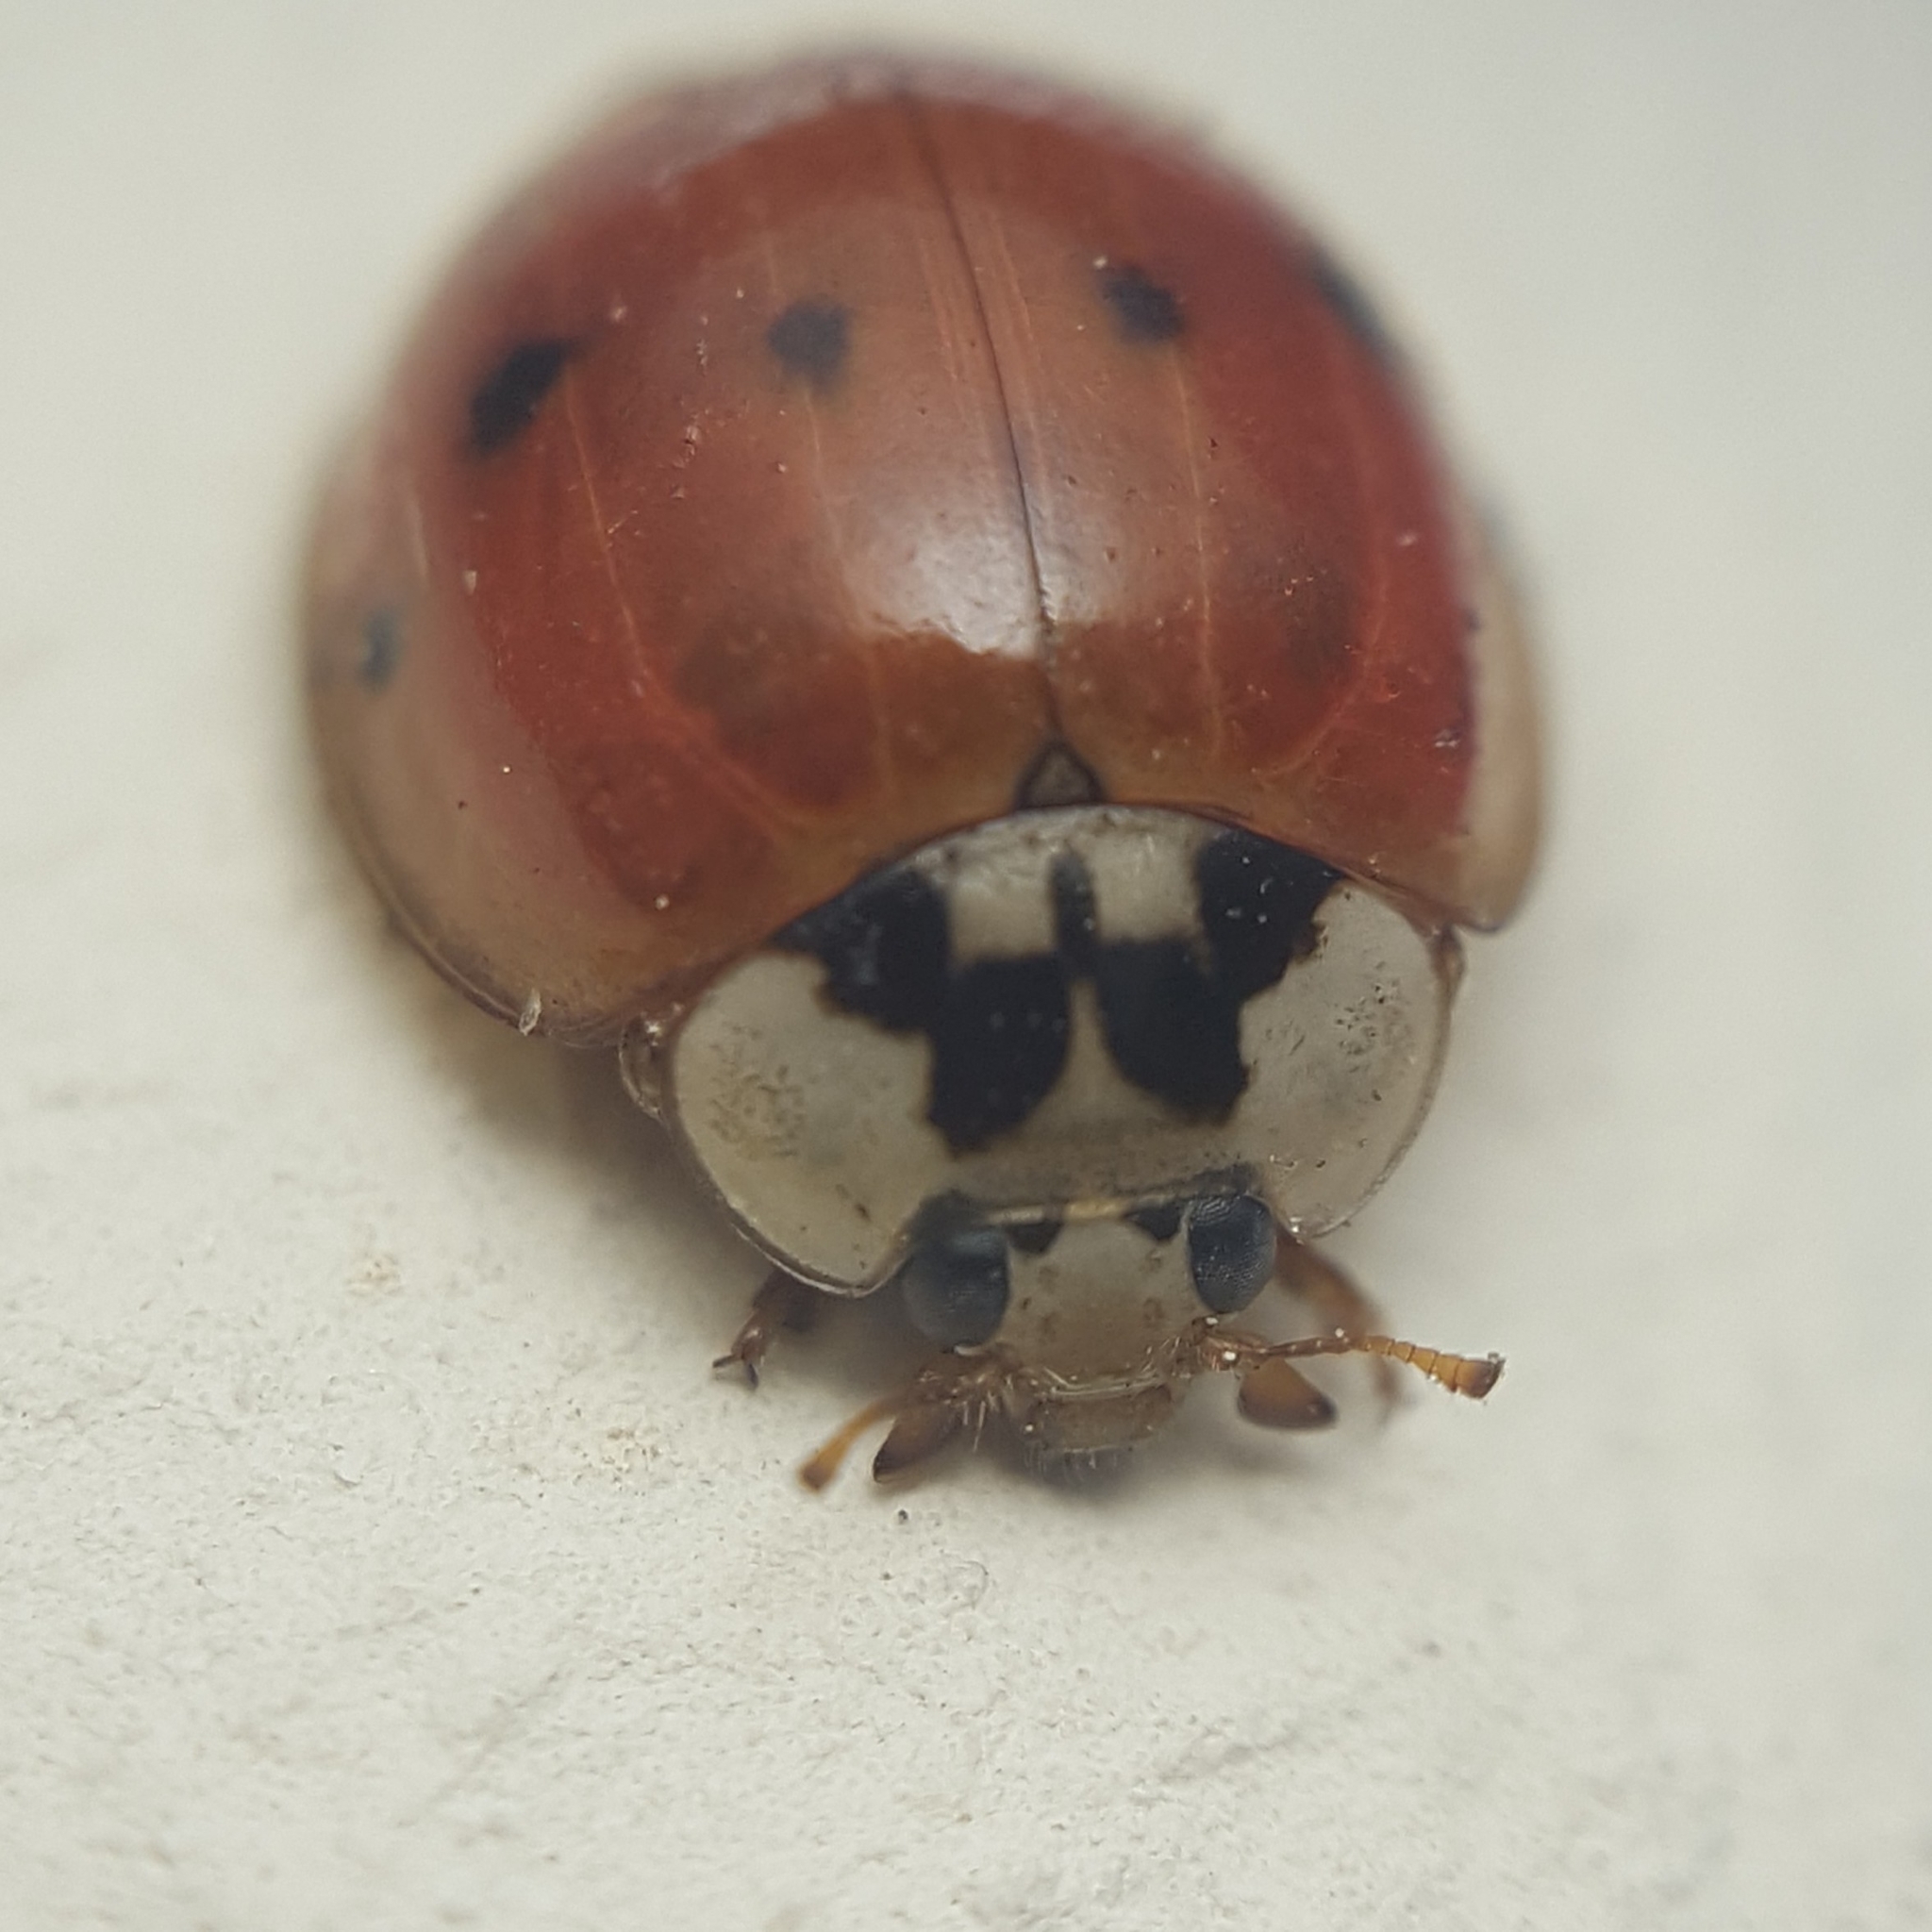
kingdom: Animalia
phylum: Arthropoda
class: Insecta
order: Coleoptera
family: Coccinellidae
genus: Harmonia
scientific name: Harmonia axyridis
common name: Harlequin ladybird
